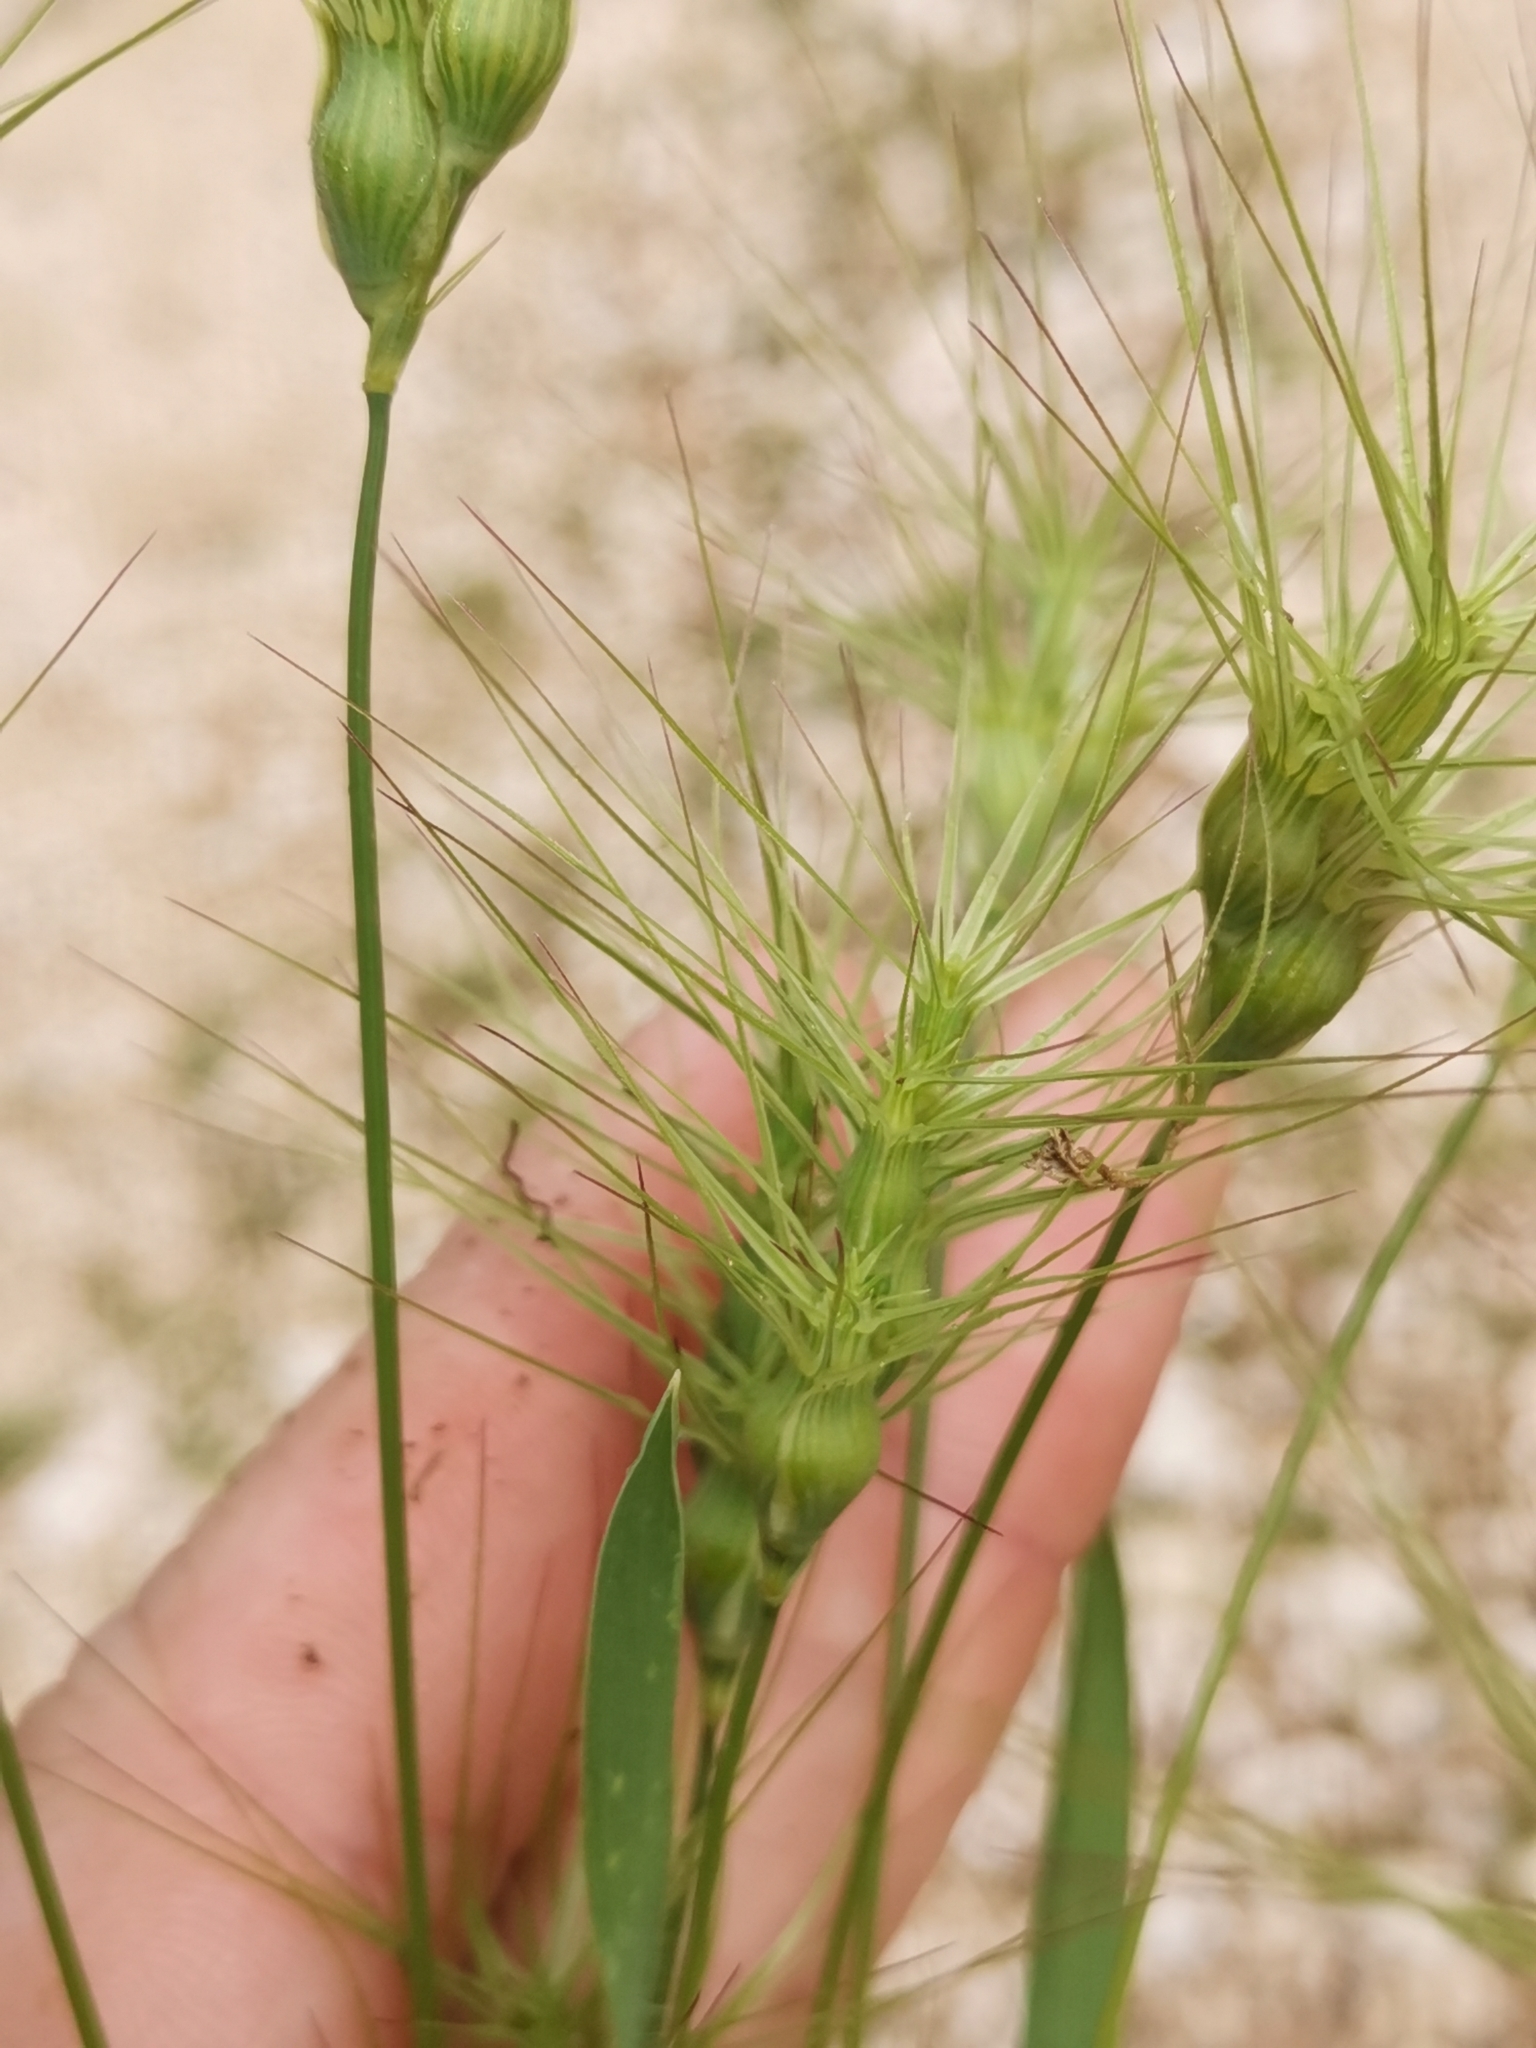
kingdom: Plantae
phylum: Tracheophyta
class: Liliopsida
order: Poales
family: Poaceae
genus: Aegilops
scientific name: Aegilops geniculata
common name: Ovate goat grass
